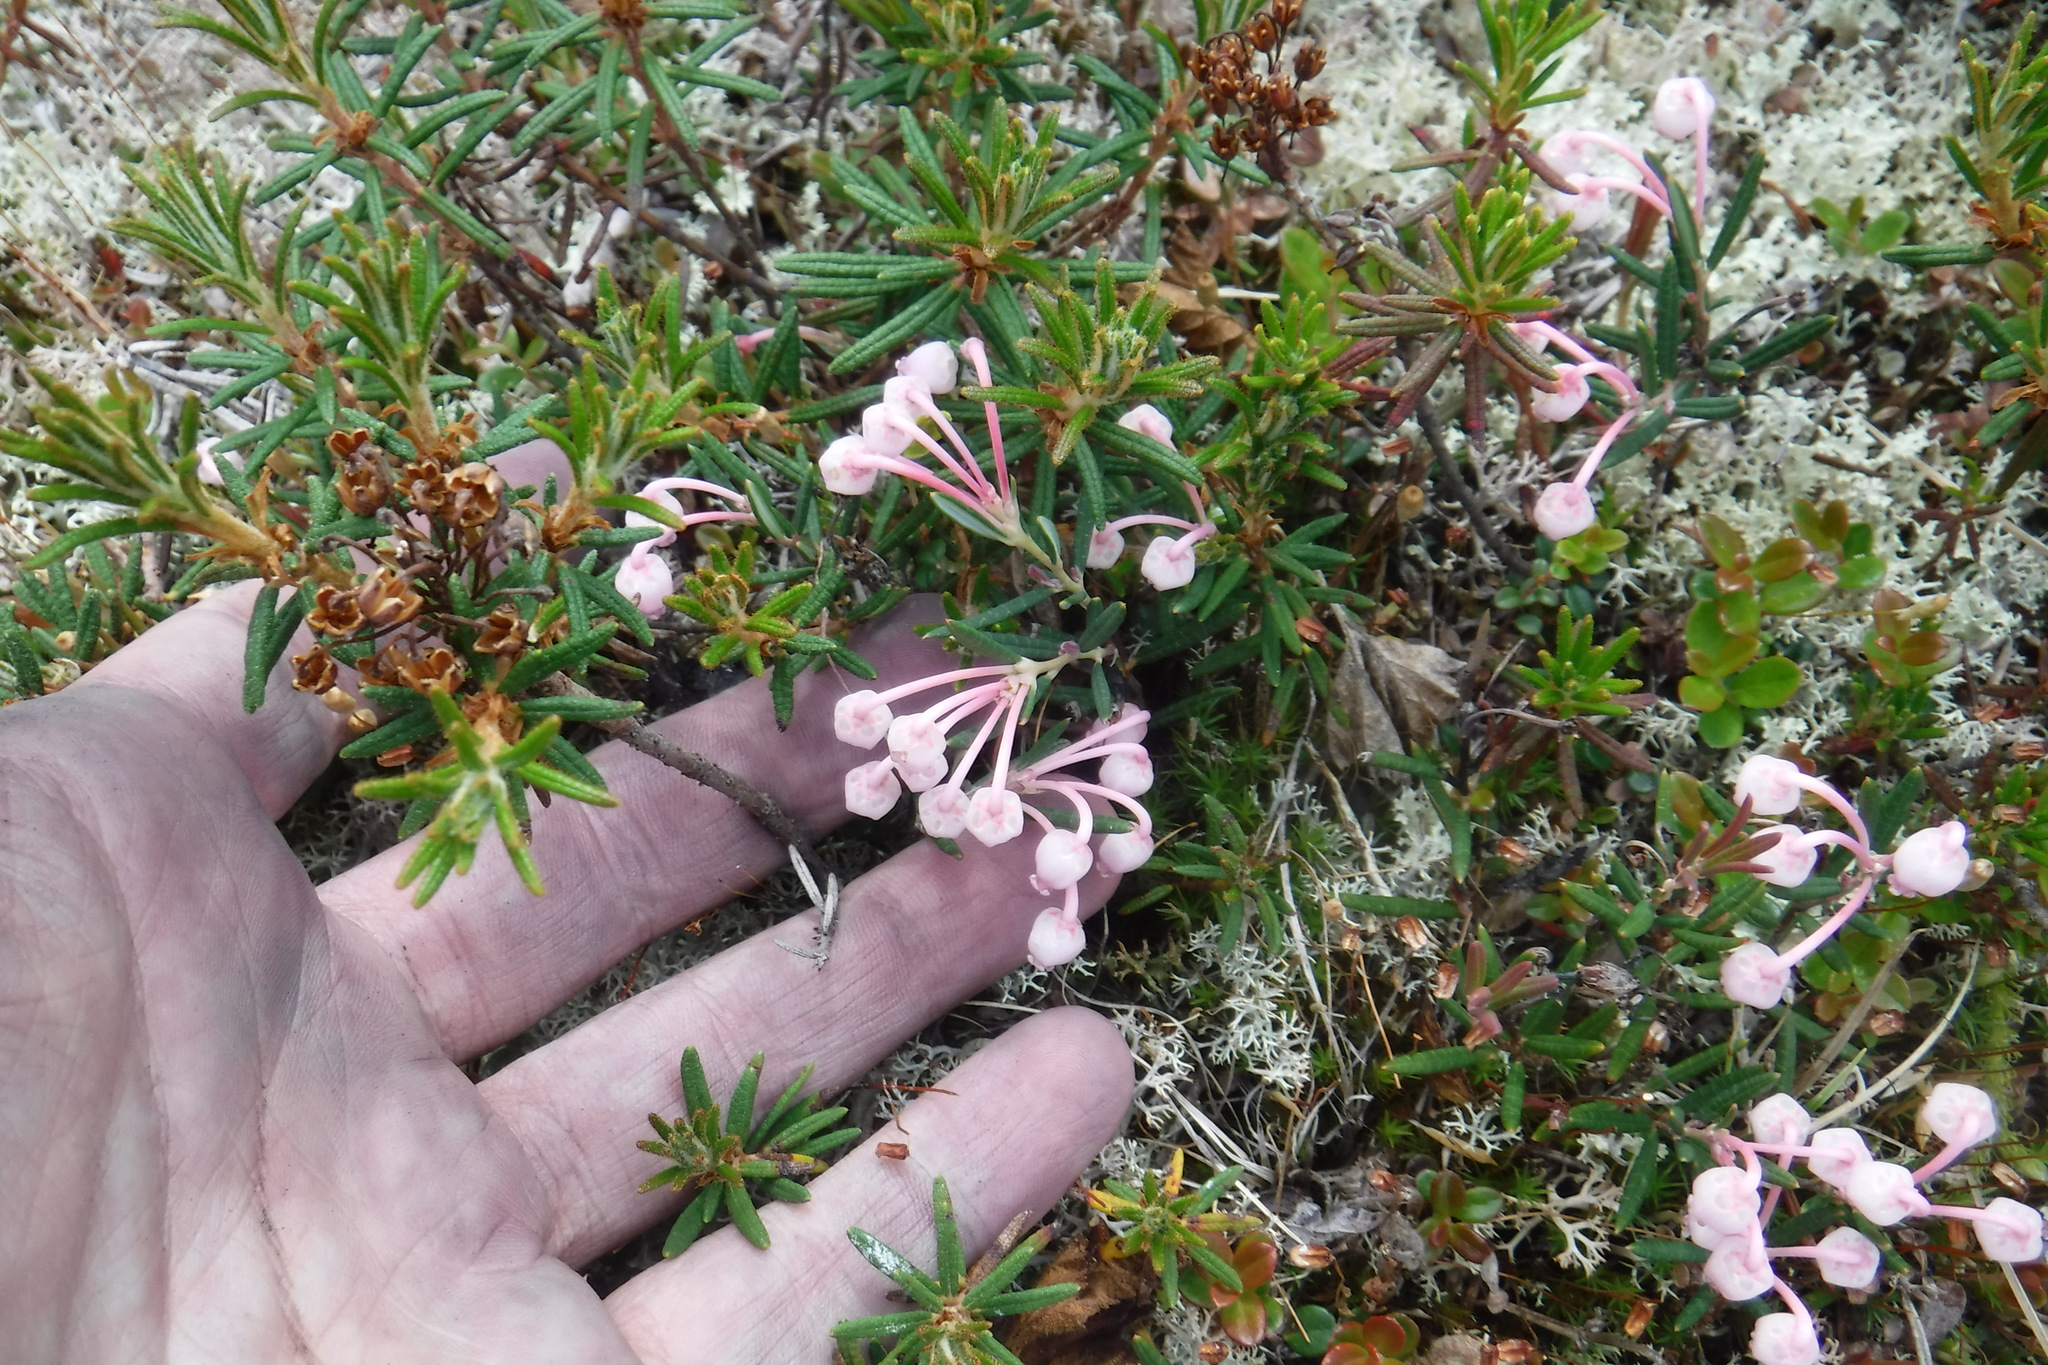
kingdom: Plantae
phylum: Tracheophyta
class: Magnoliopsida
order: Ericales
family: Ericaceae
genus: Andromeda
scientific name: Andromeda polifolia
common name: Bog-rosemary
